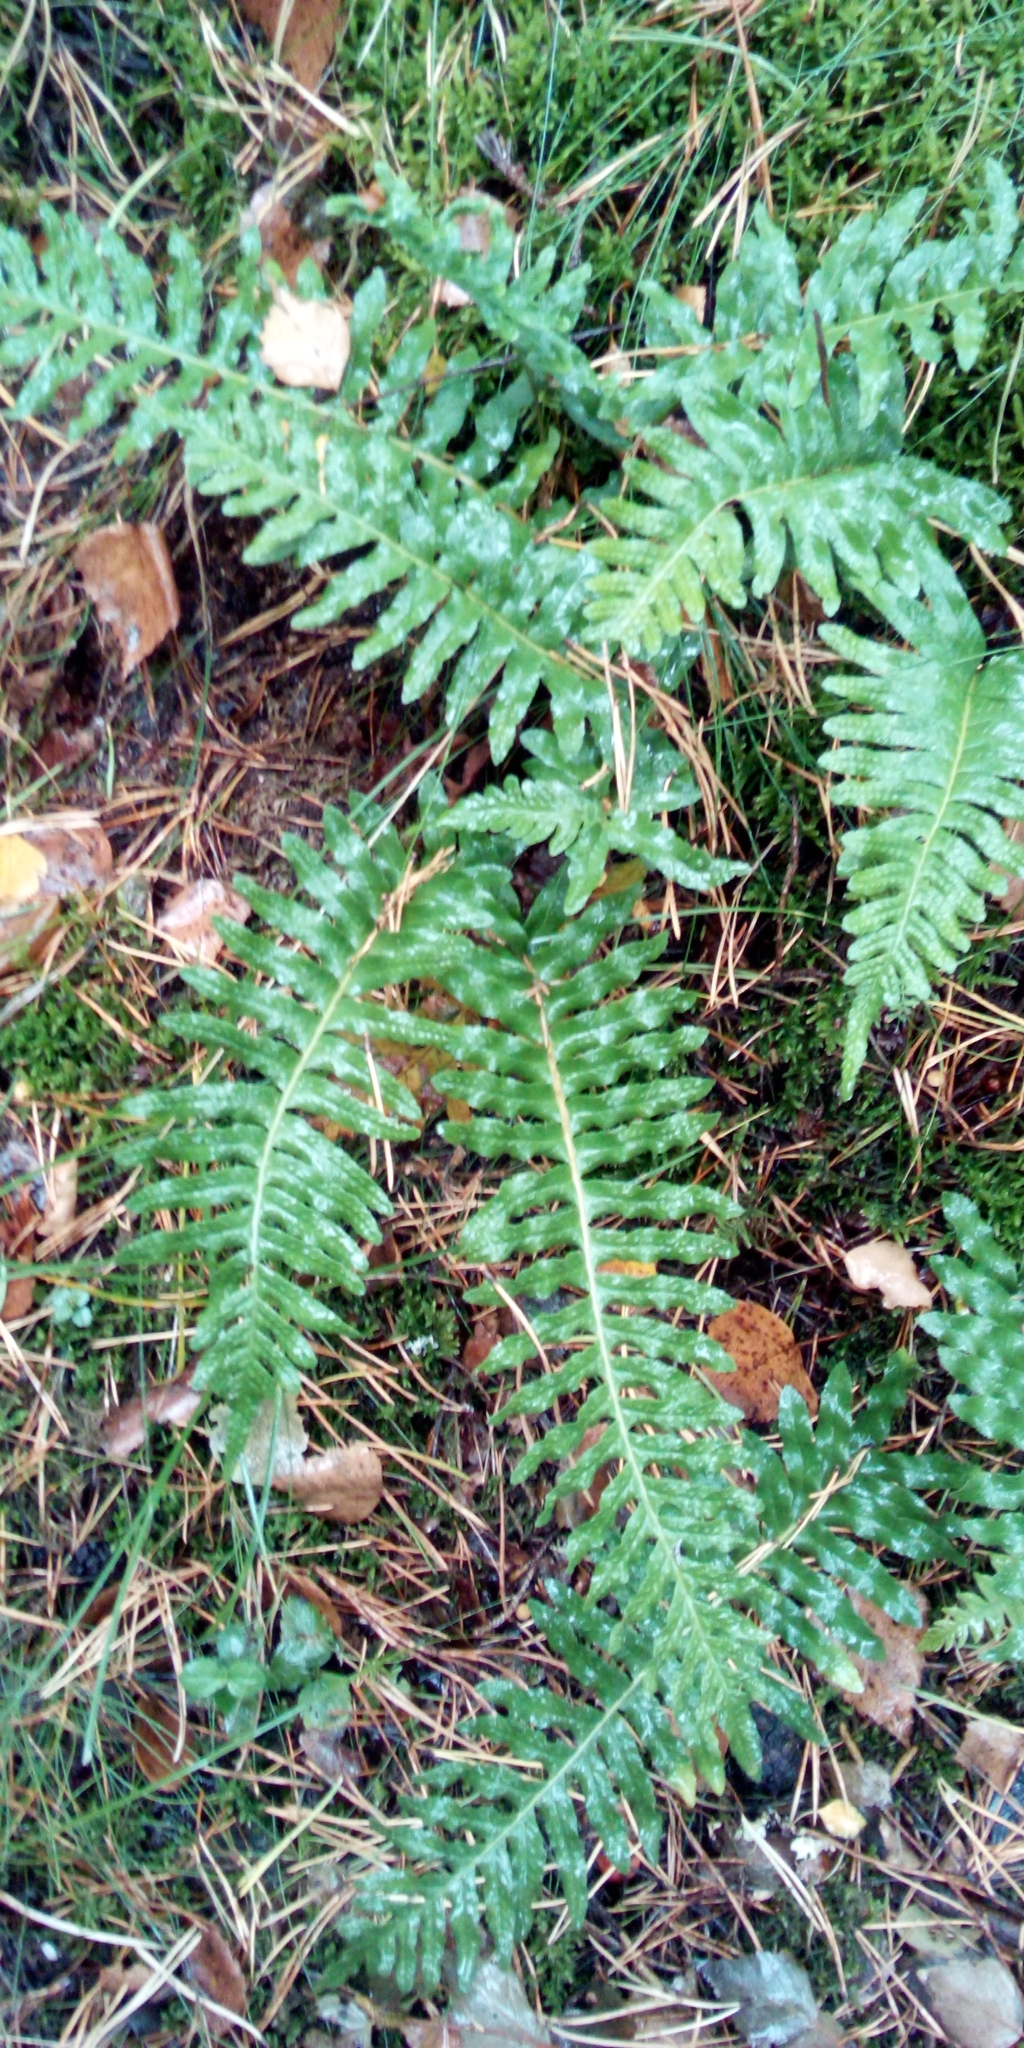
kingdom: Plantae
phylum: Tracheophyta
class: Polypodiopsida
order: Polypodiales
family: Polypodiaceae
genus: Polypodium
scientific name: Polypodium vulgare
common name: Common polypody
